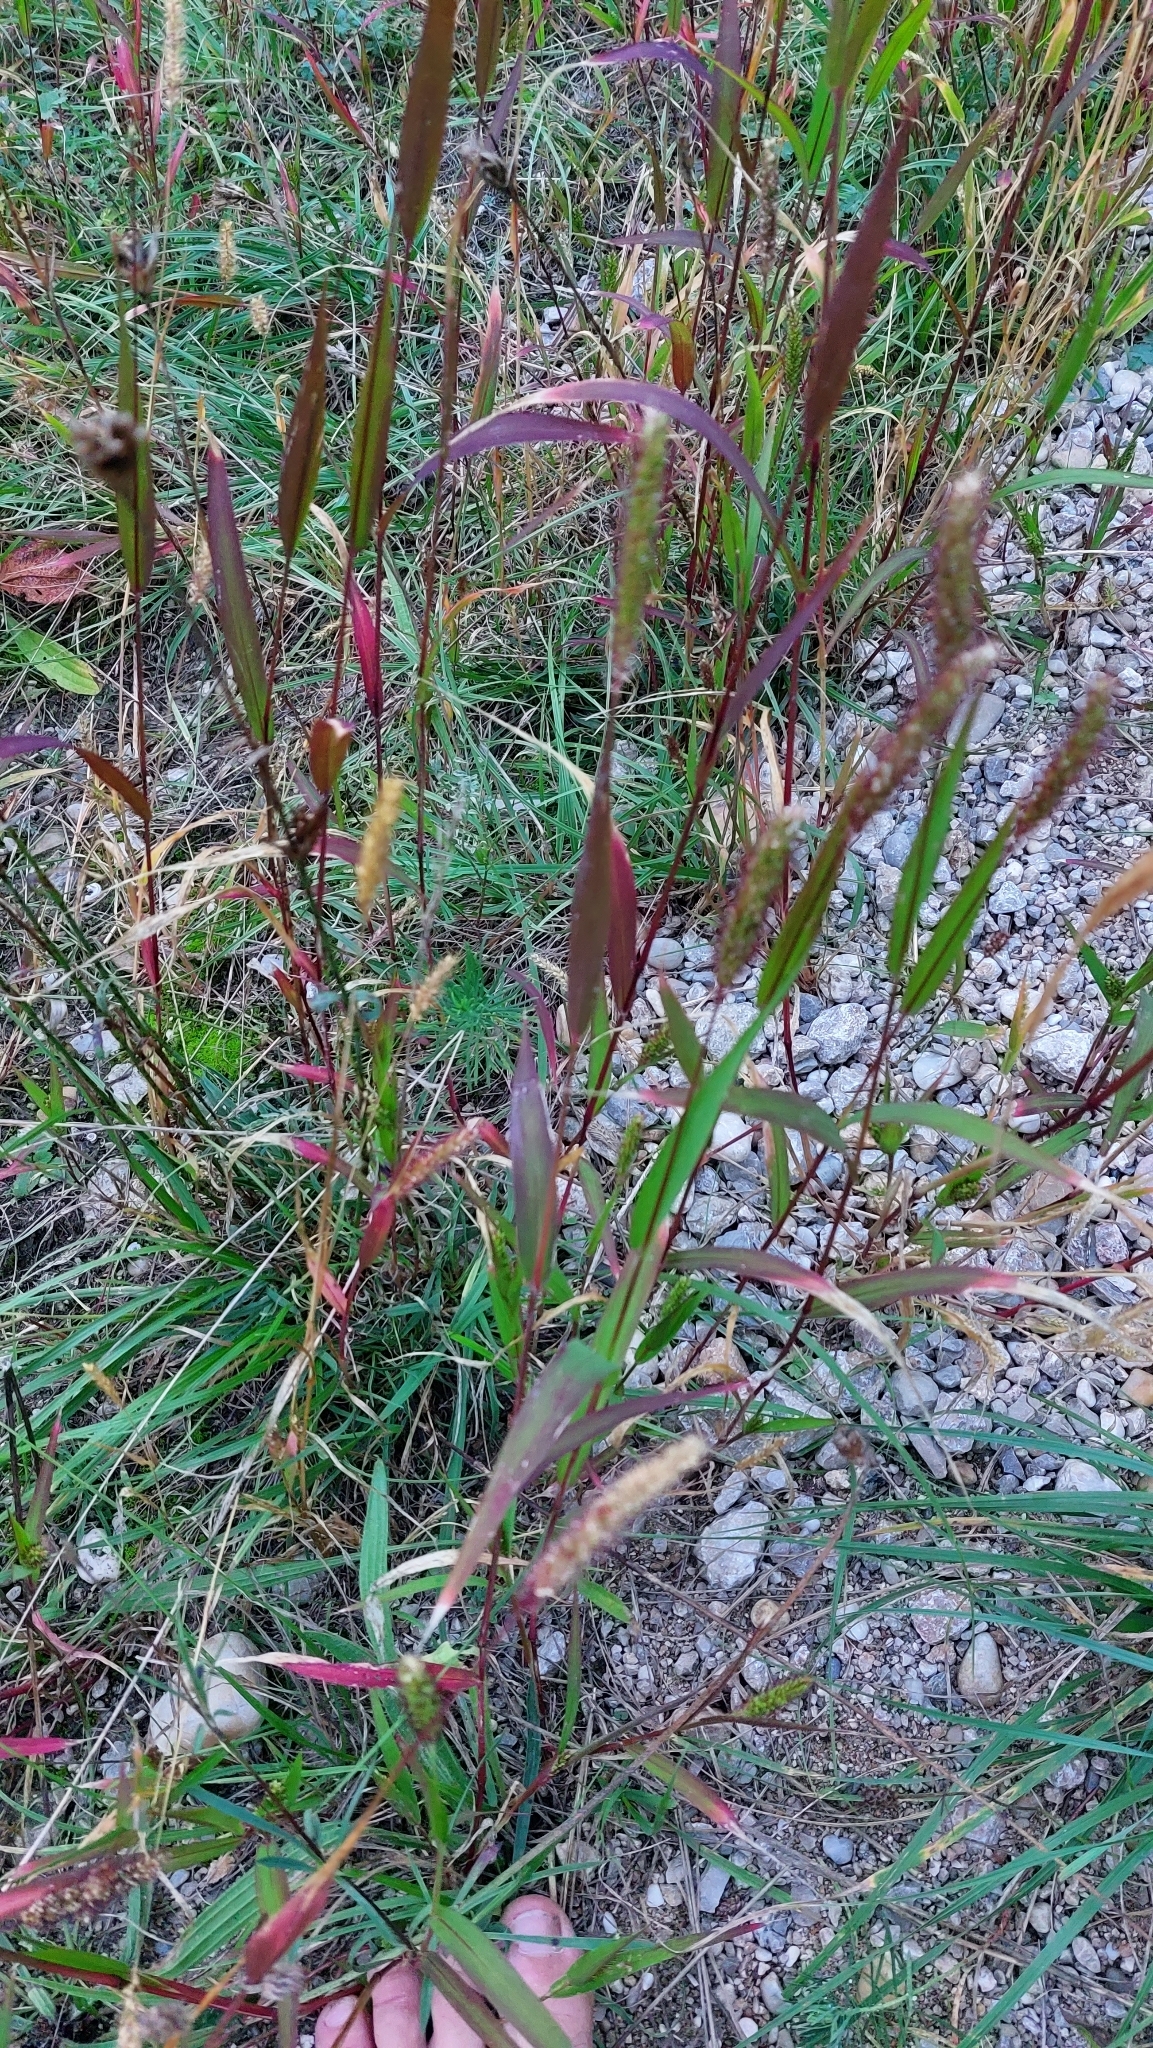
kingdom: Plantae
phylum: Tracheophyta
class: Liliopsida
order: Poales
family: Poaceae
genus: Setaria
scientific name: Setaria viridis
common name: Green bristlegrass
